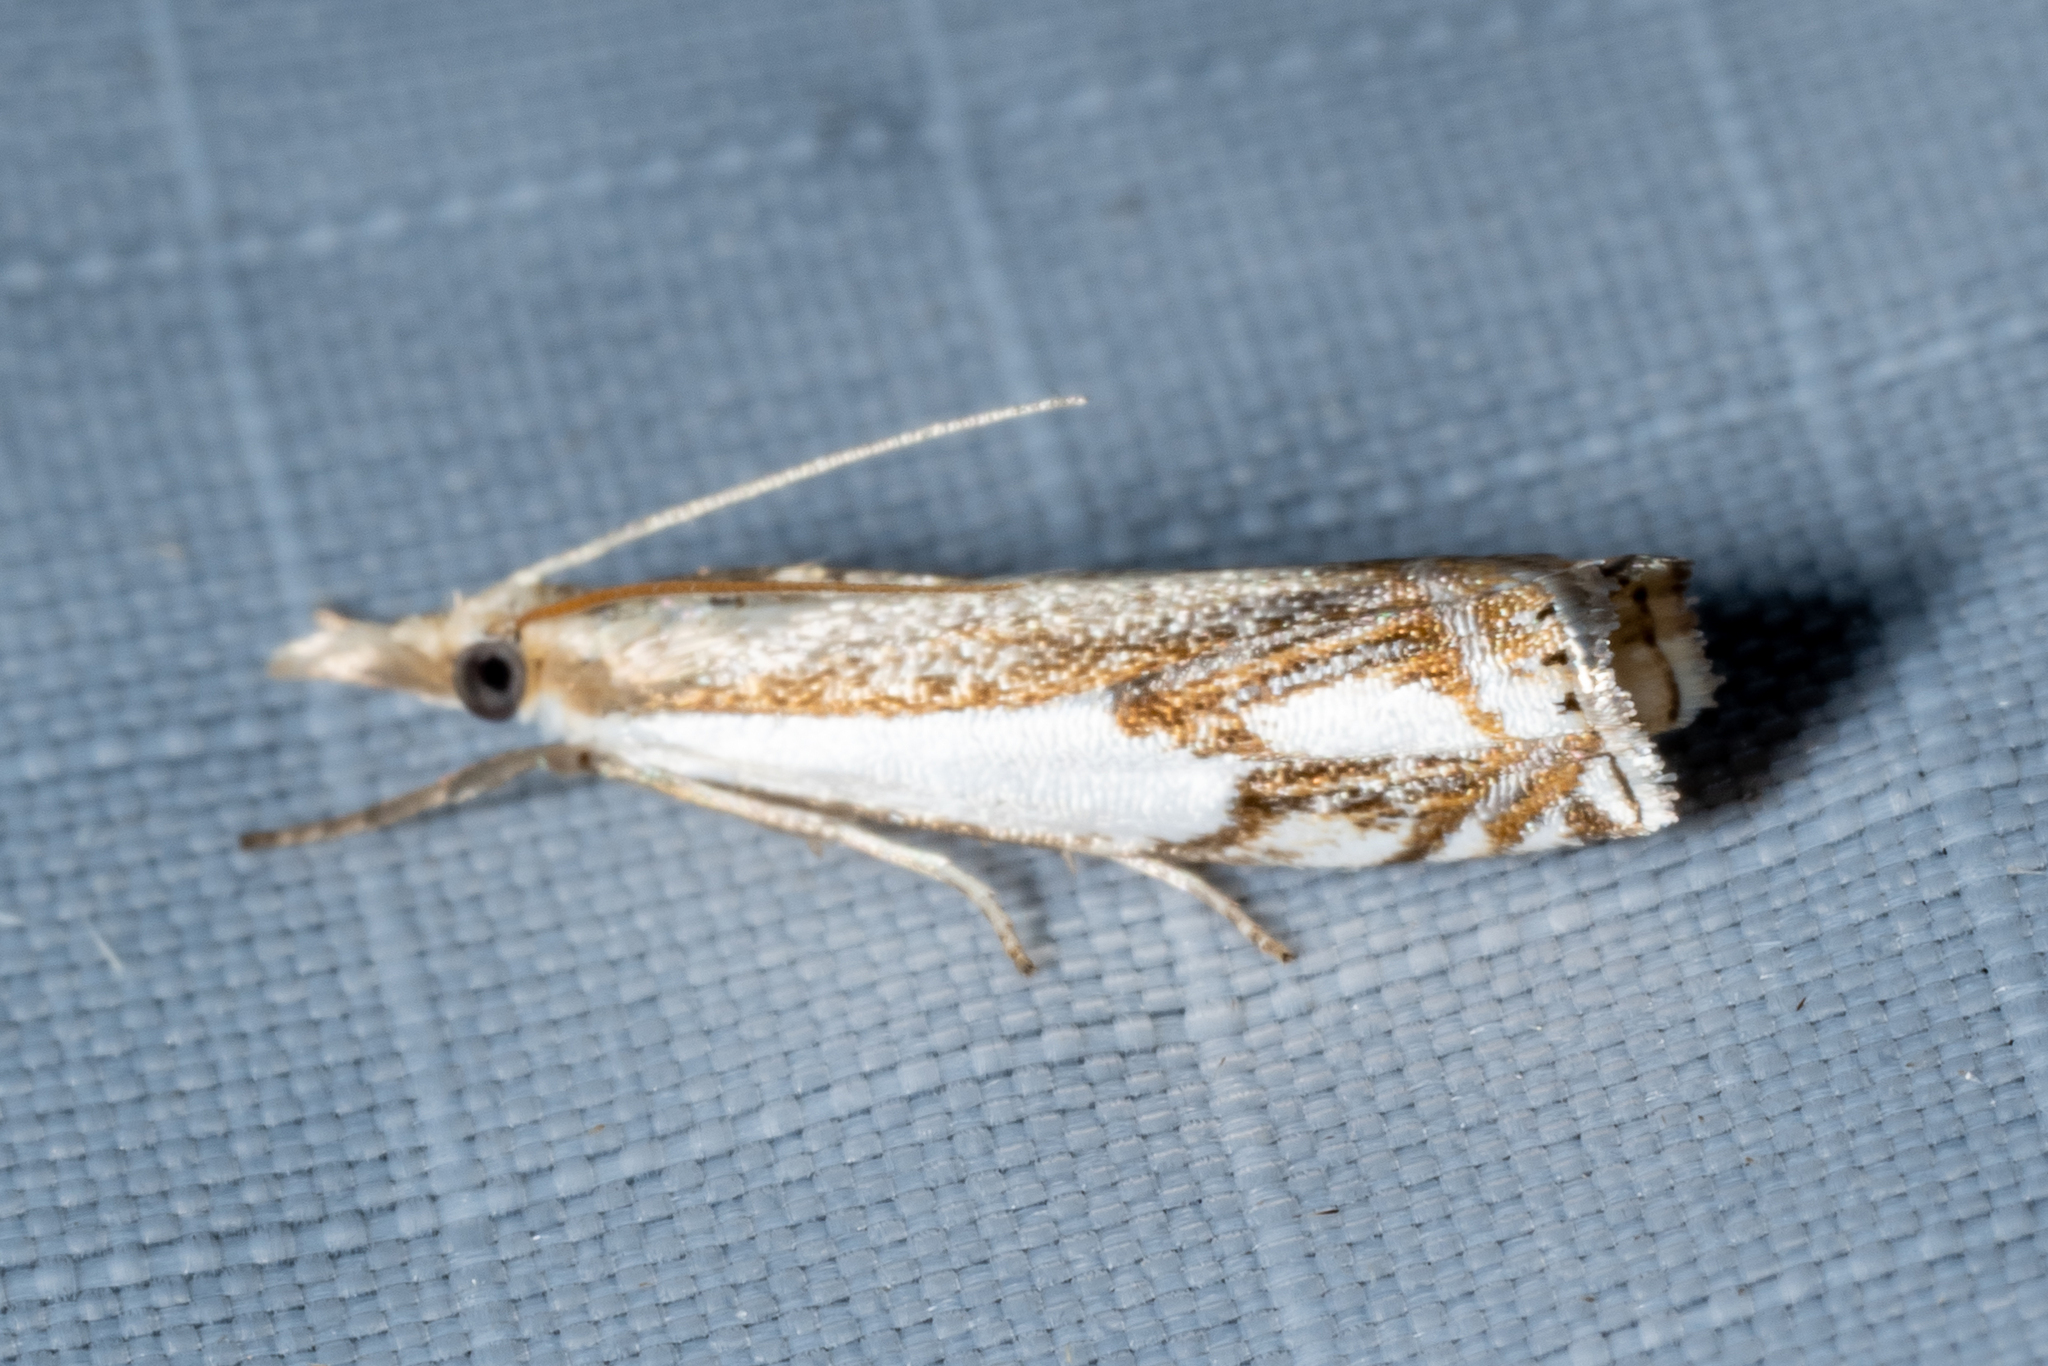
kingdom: Animalia
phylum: Arthropoda
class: Insecta
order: Lepidoptera
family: Crambidae
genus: Crambus
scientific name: Crambus agitatellus
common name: Double-banded grass-veneer
